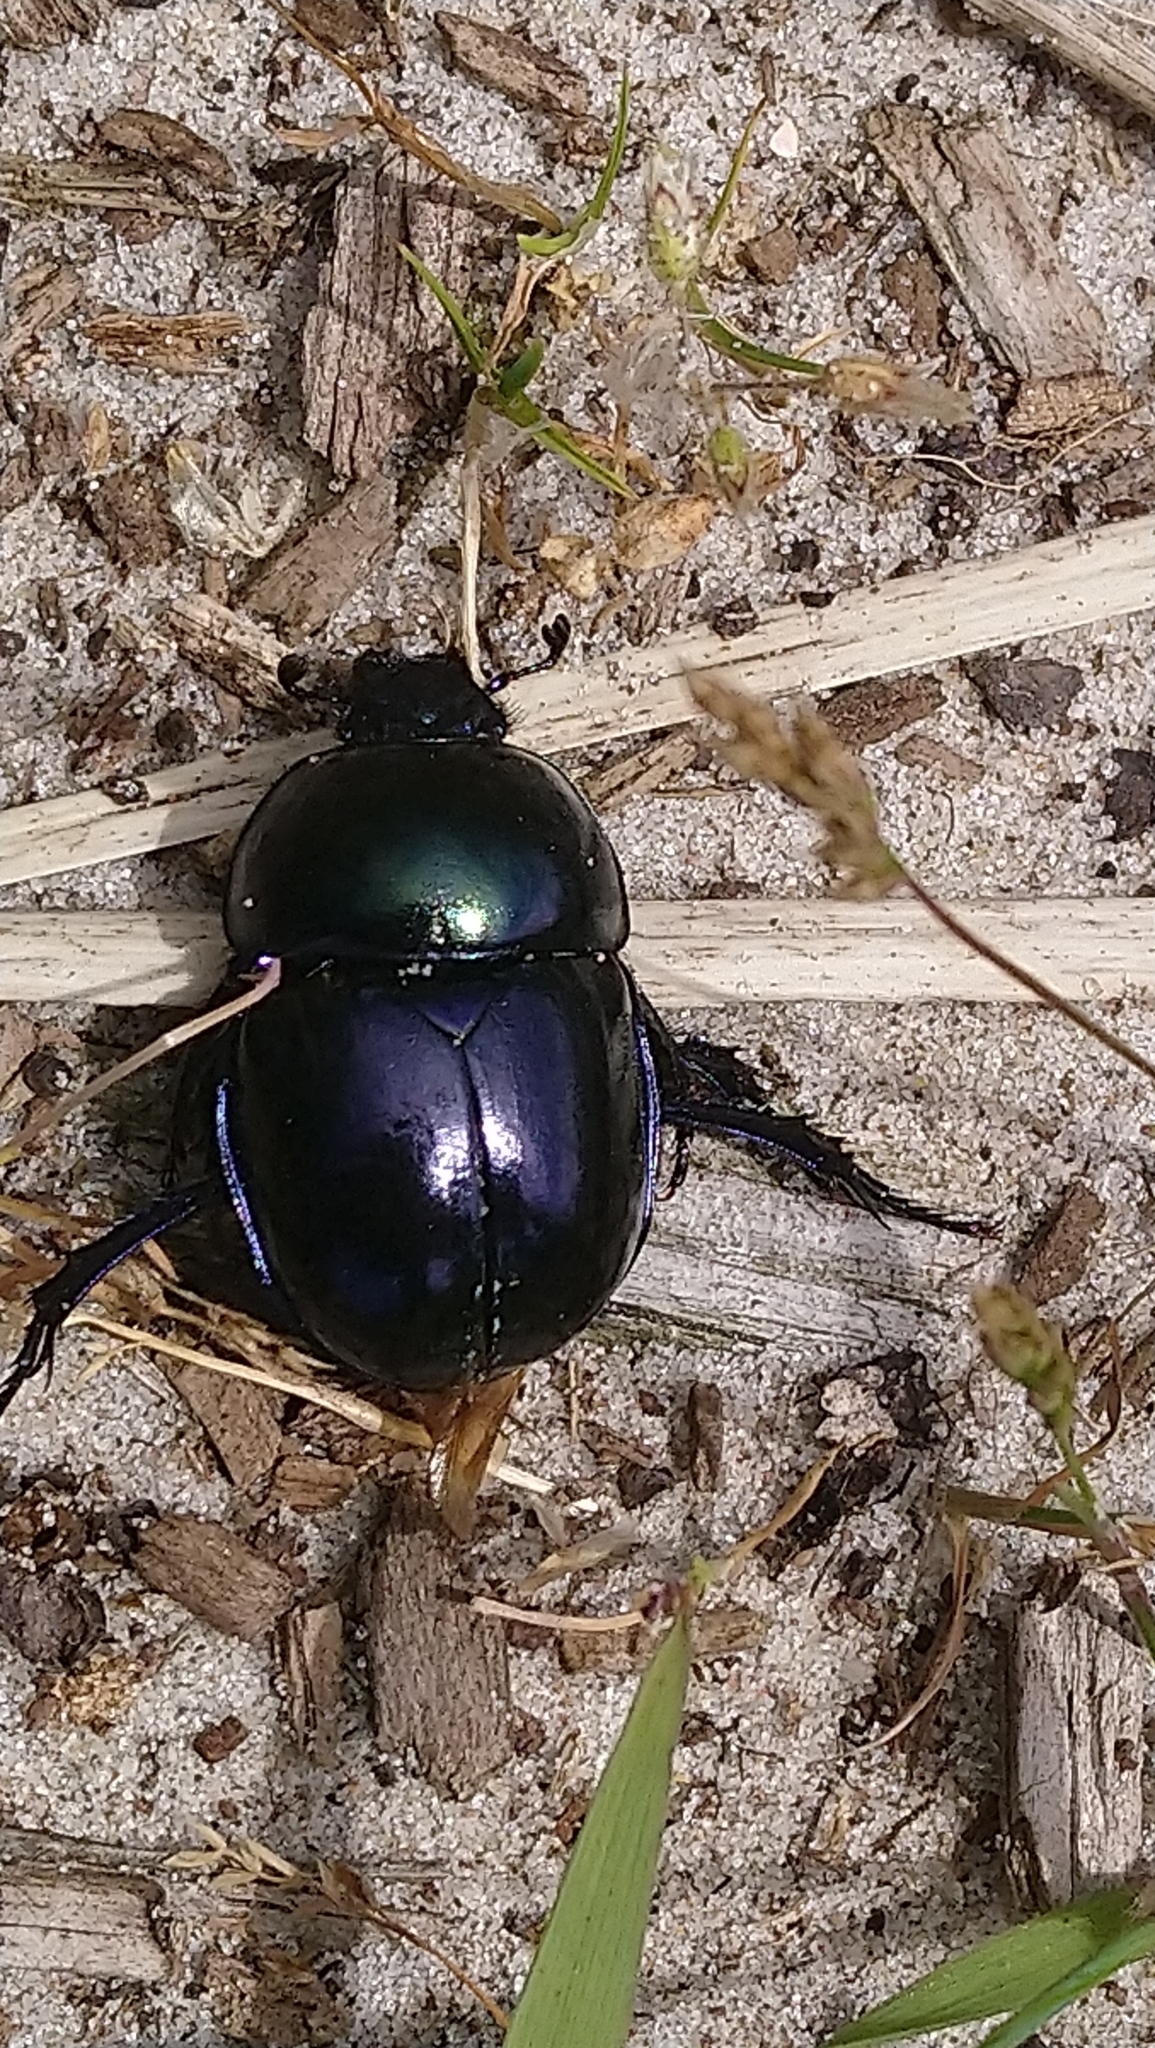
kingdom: Animalia
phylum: Arthropoda
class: Insecta
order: Coleoptera
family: Geotrupidae
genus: Trypocopris
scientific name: Trypocopris vernalis
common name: Spring dumbledor
